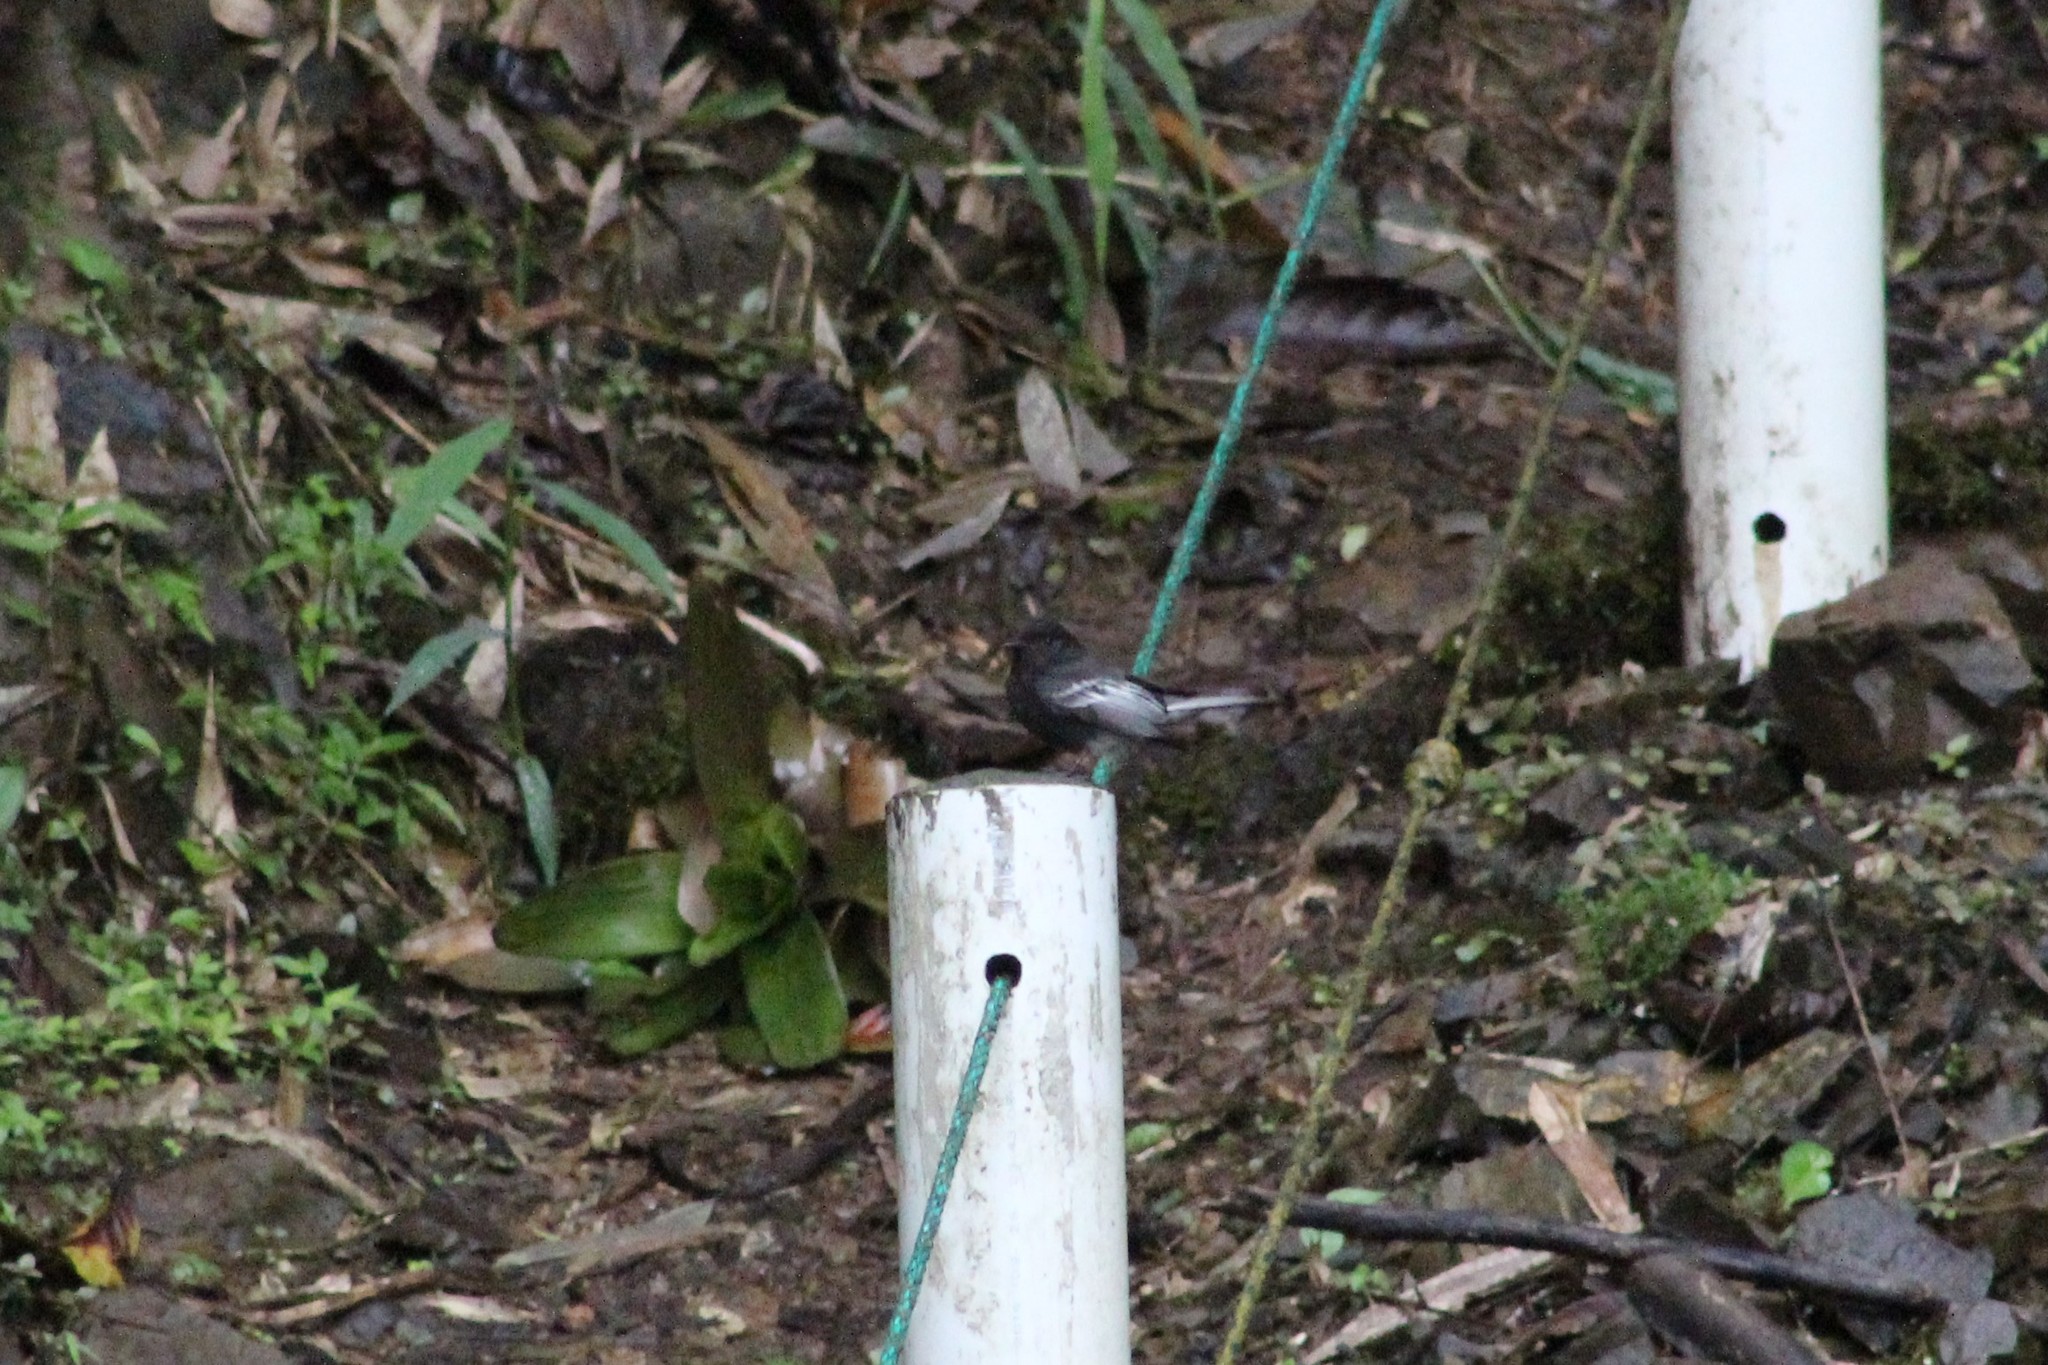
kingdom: Animalia
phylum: Chordata
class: Aves
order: Passeriformes
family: Tyrannidae
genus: Sayornis
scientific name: Sayornis nigricans
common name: Black phoebe
